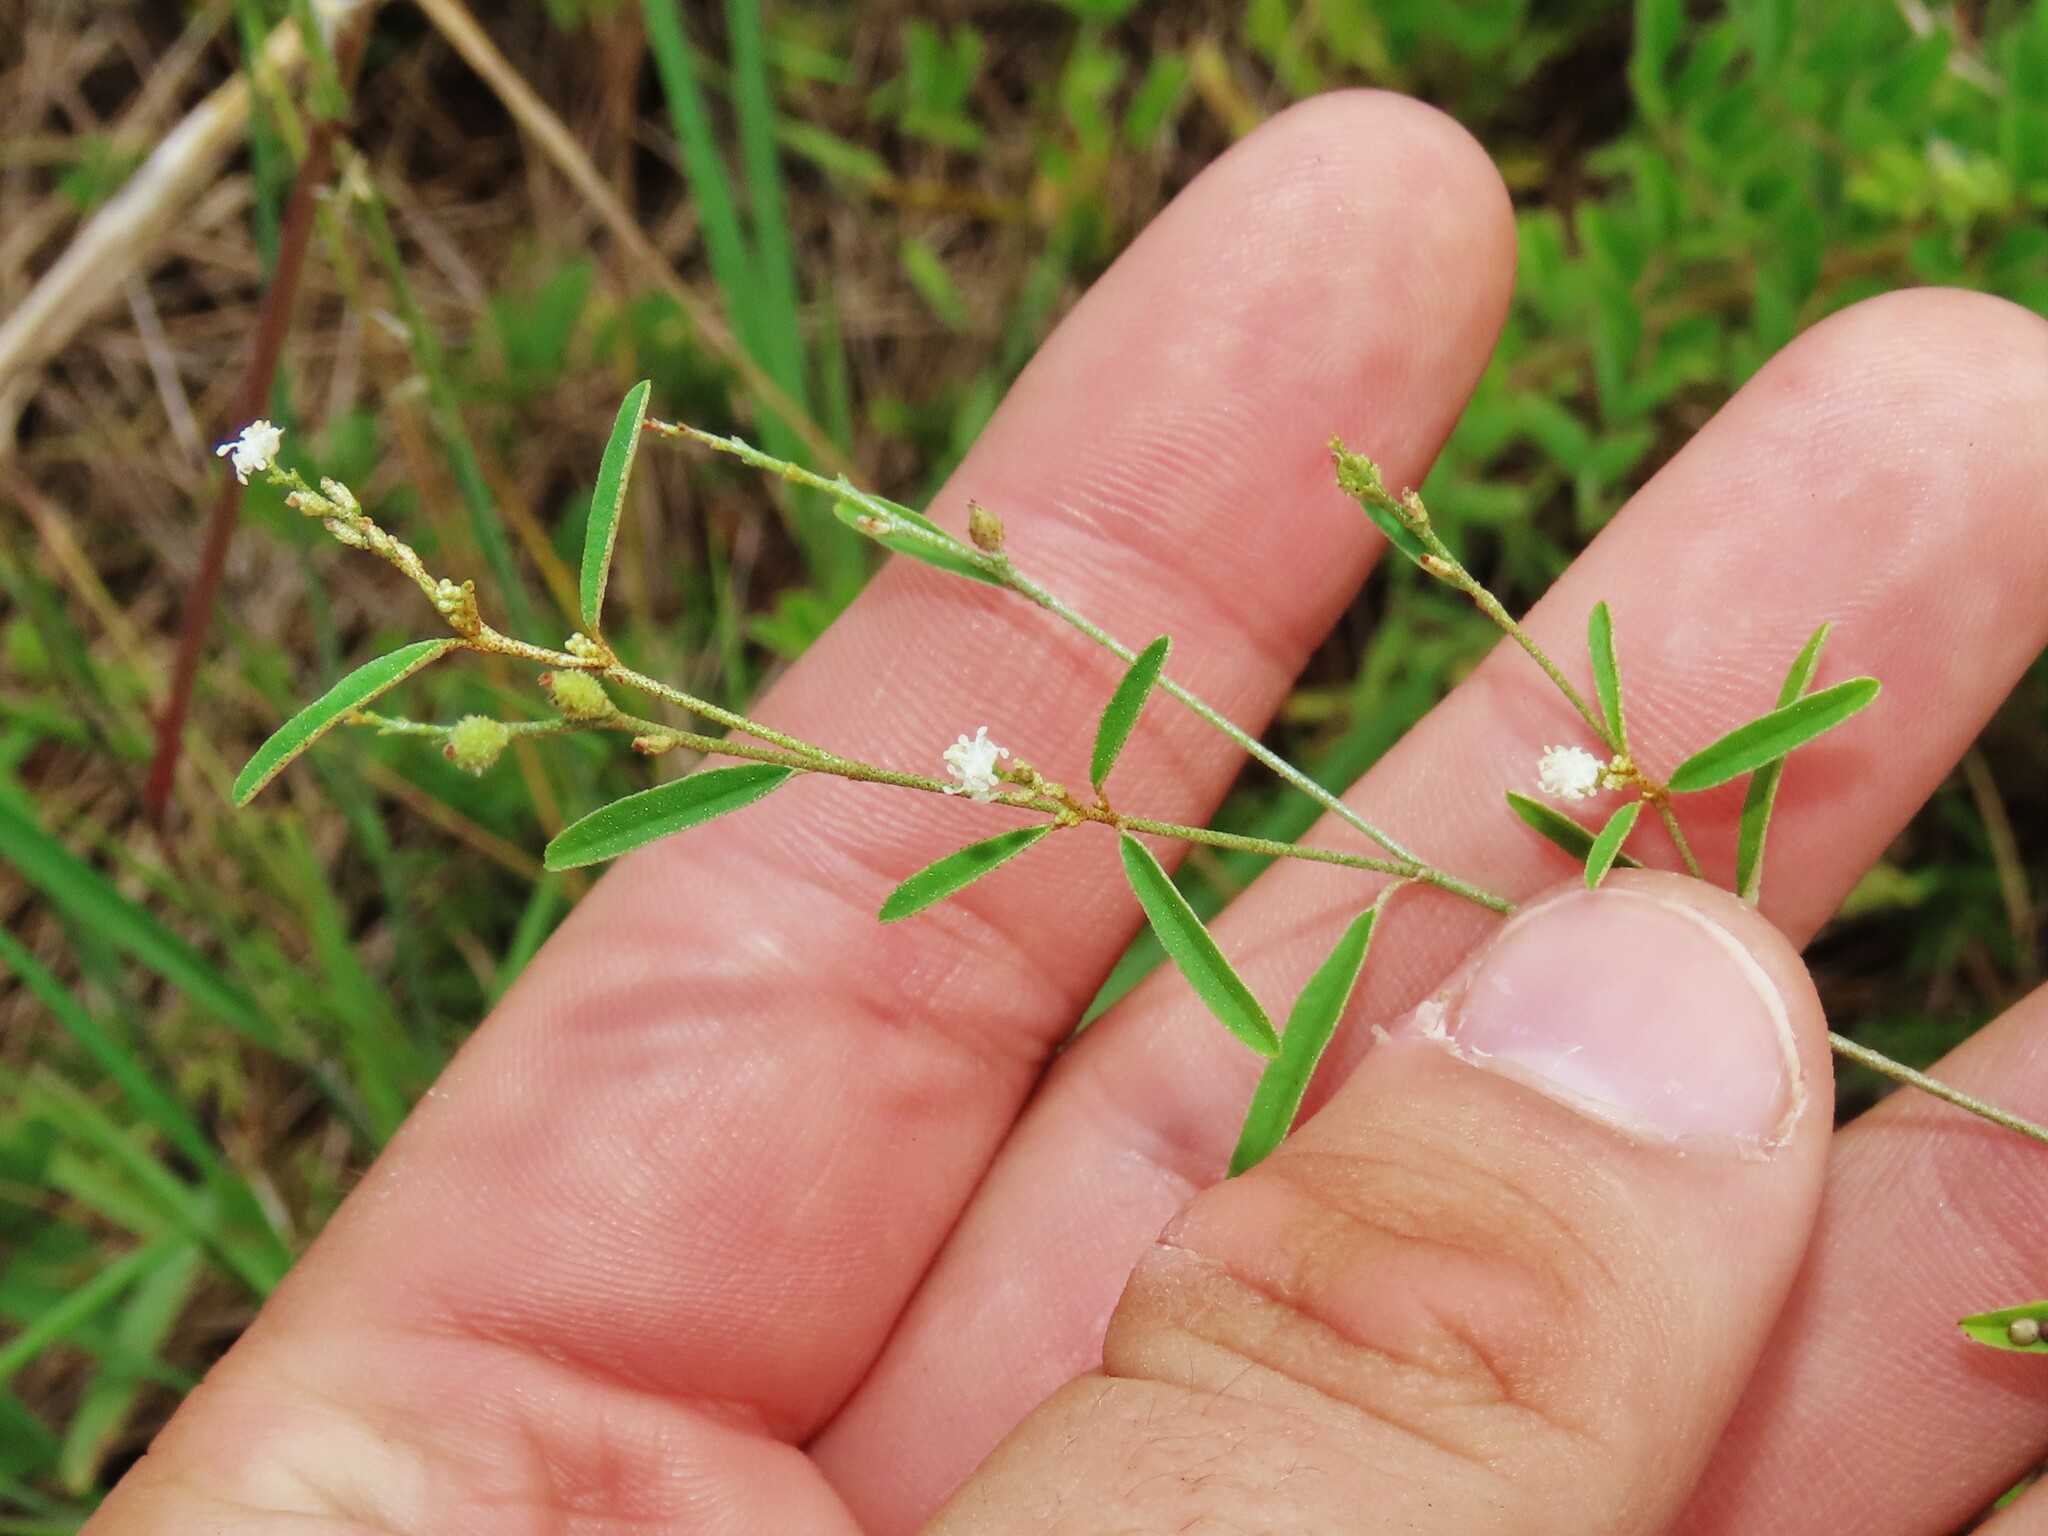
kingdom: Plantae
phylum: Tracheophyta
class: Magnoliopsida
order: Malpighiales
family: Euphorbiaceae
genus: Croton
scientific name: Croton michauxii
